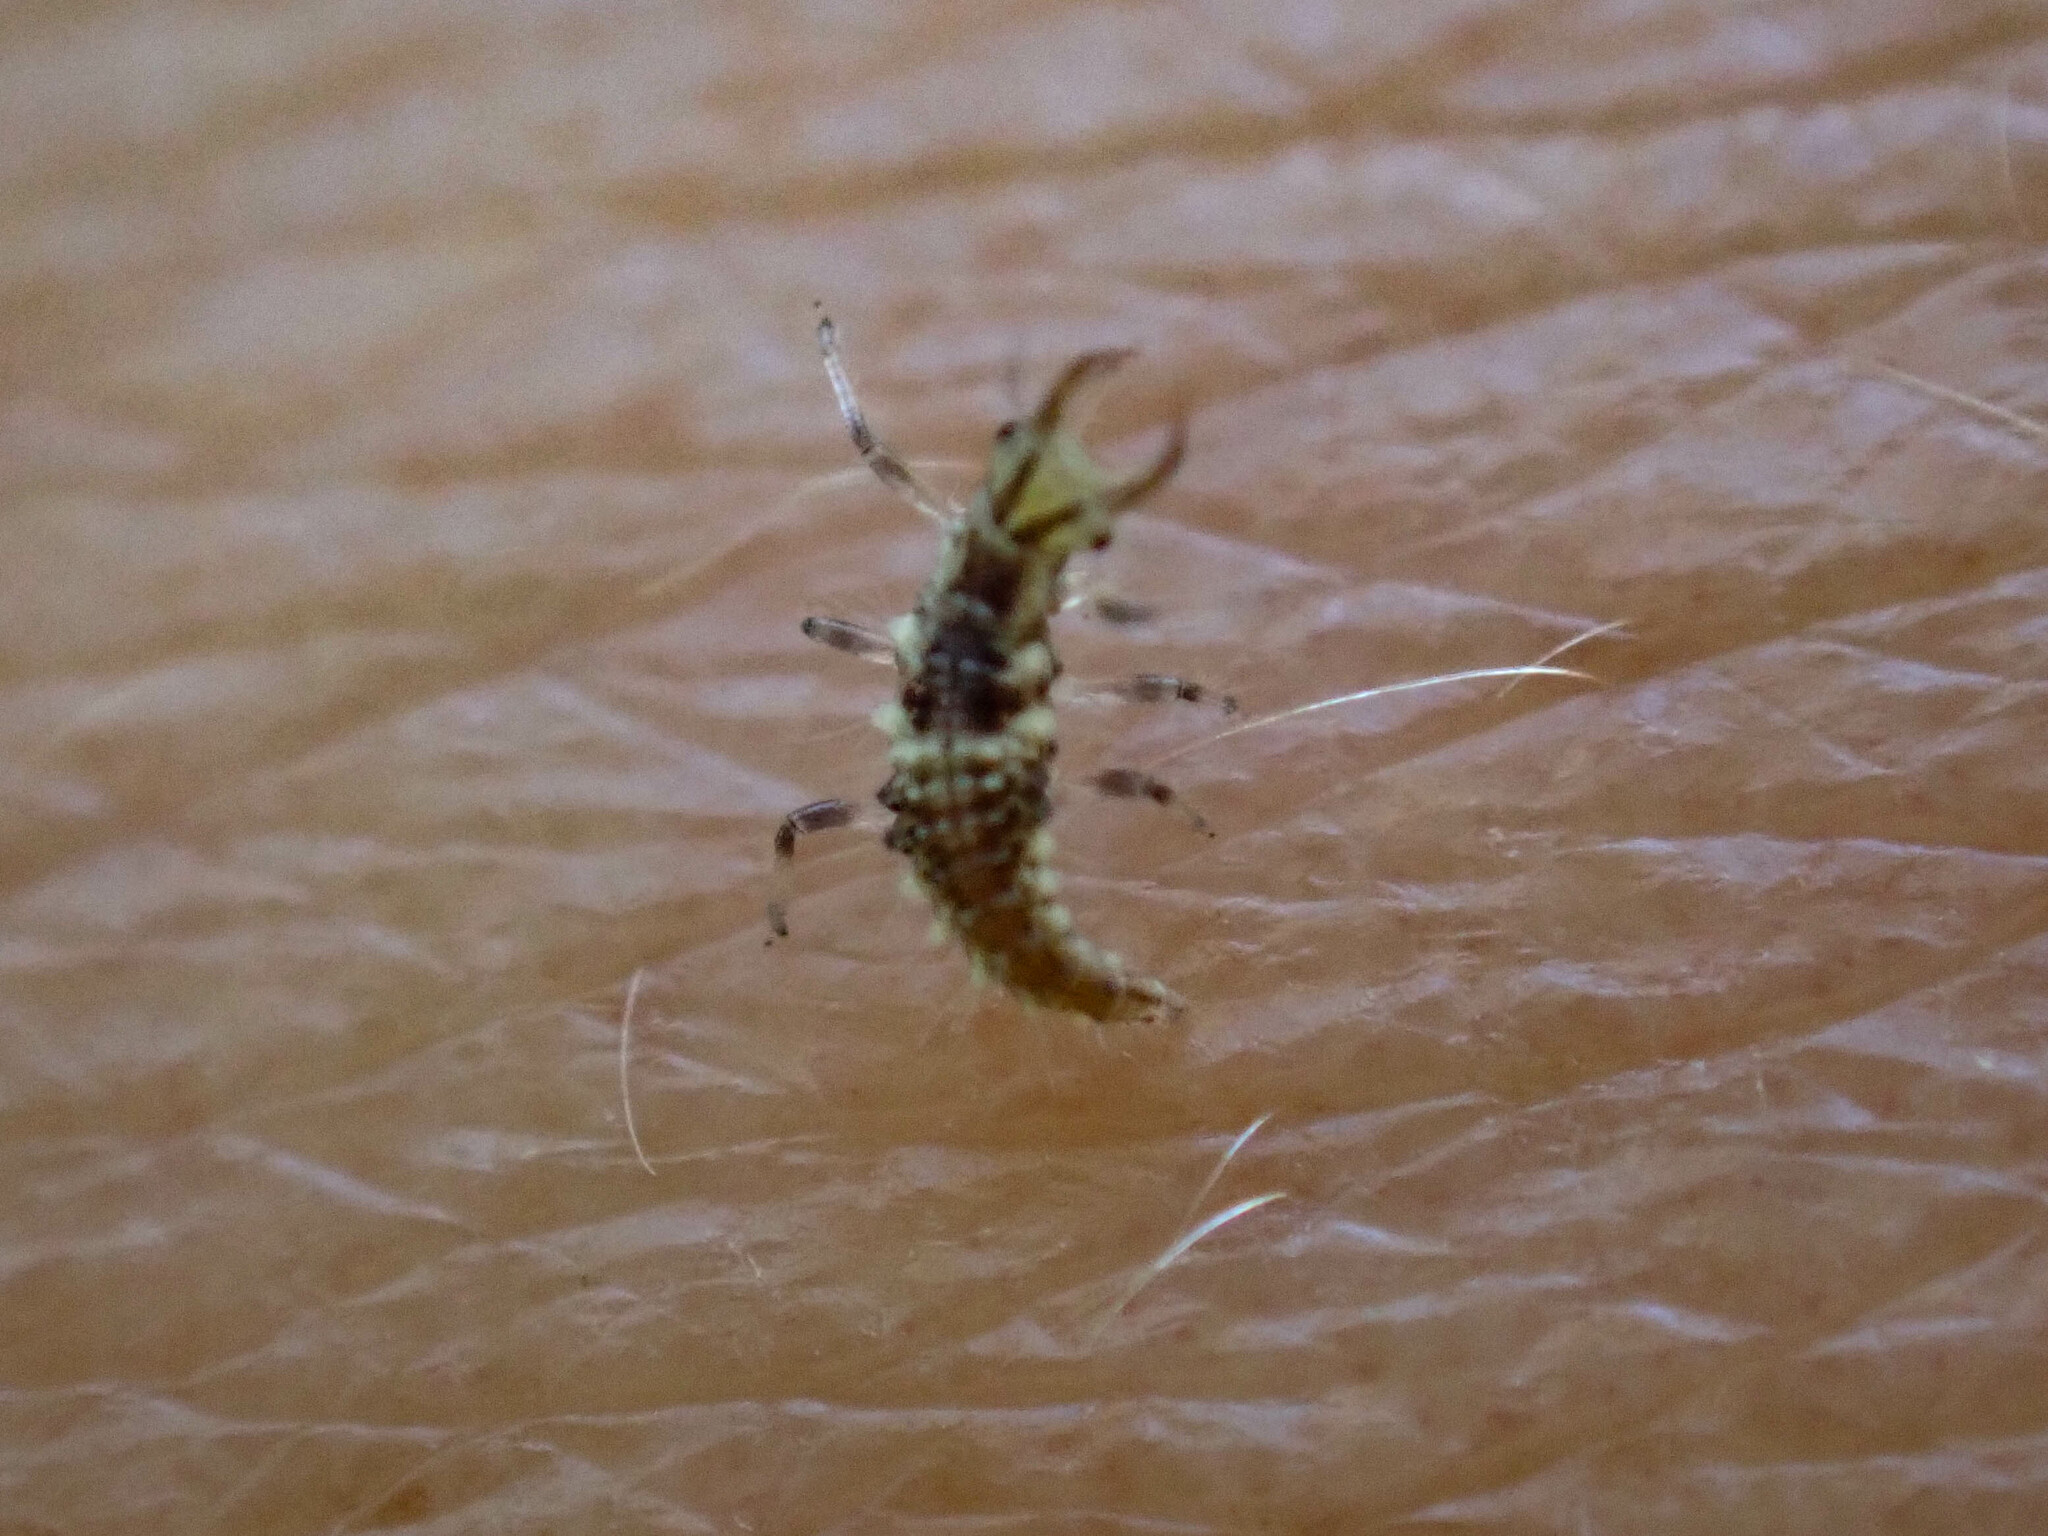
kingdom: Animalia
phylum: Arthropoda
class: Insecta
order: Neuroptera
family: Chrysopidae
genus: Chrysoperla
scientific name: Chrysoperla rufilabris
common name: Red-lipped green lacewing
